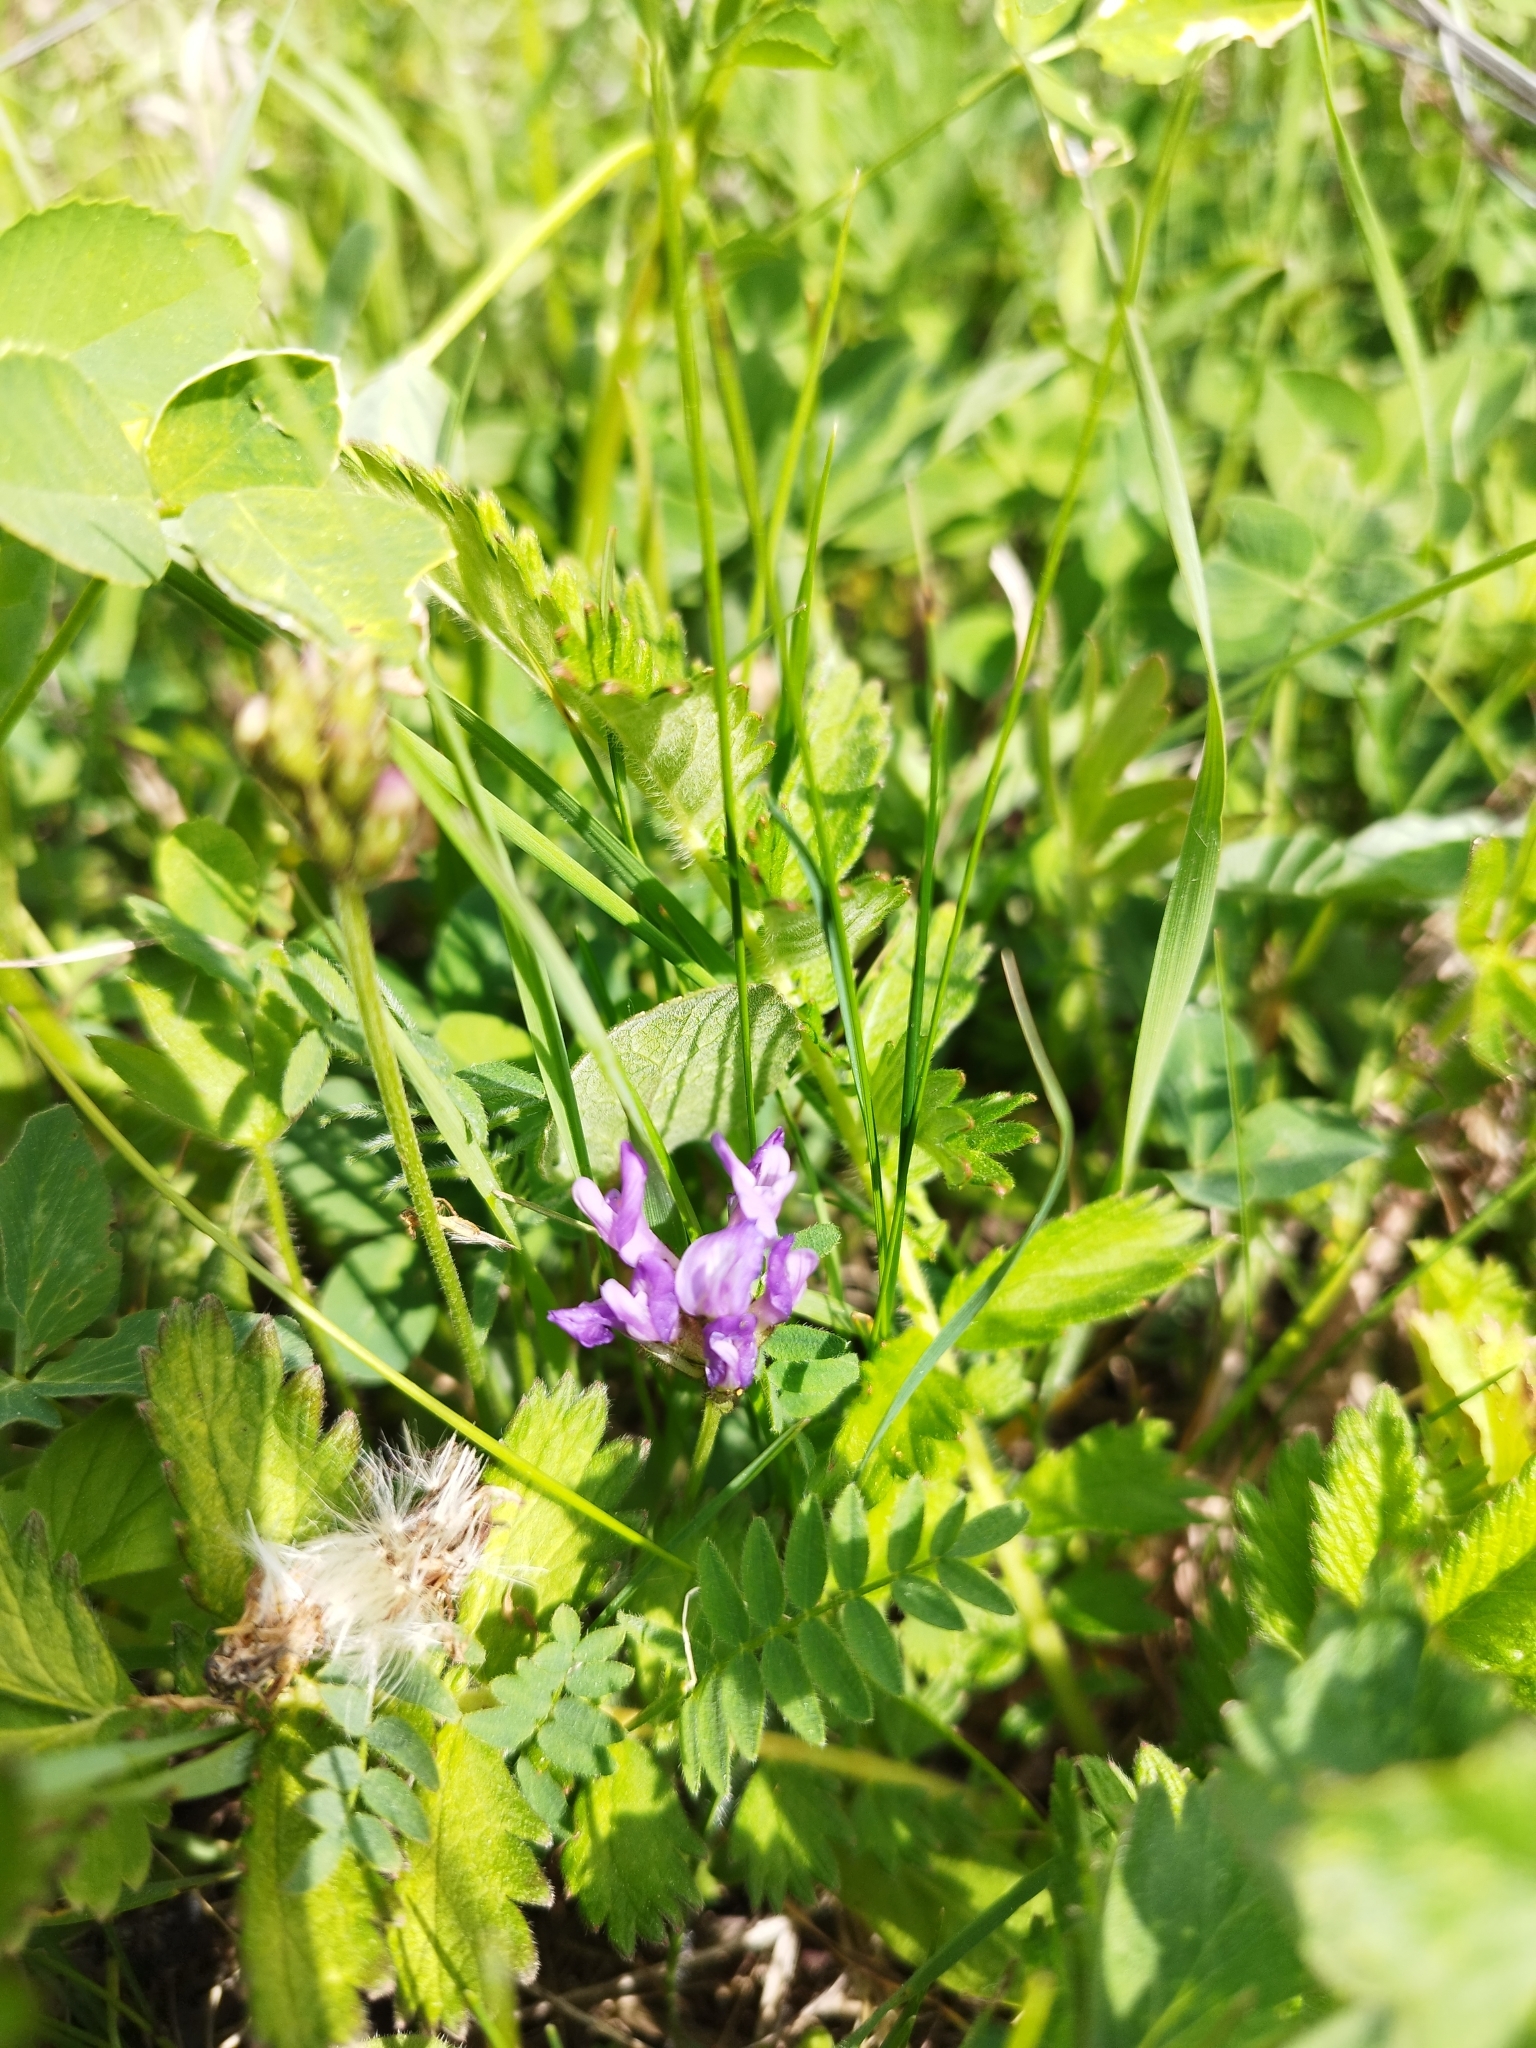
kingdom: Plantae
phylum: Tracheophyta
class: Magnoliopsida
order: Fabales
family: Fabaceae
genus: Astragalus
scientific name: Astragalus danicus
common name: Purple milk-vetch
